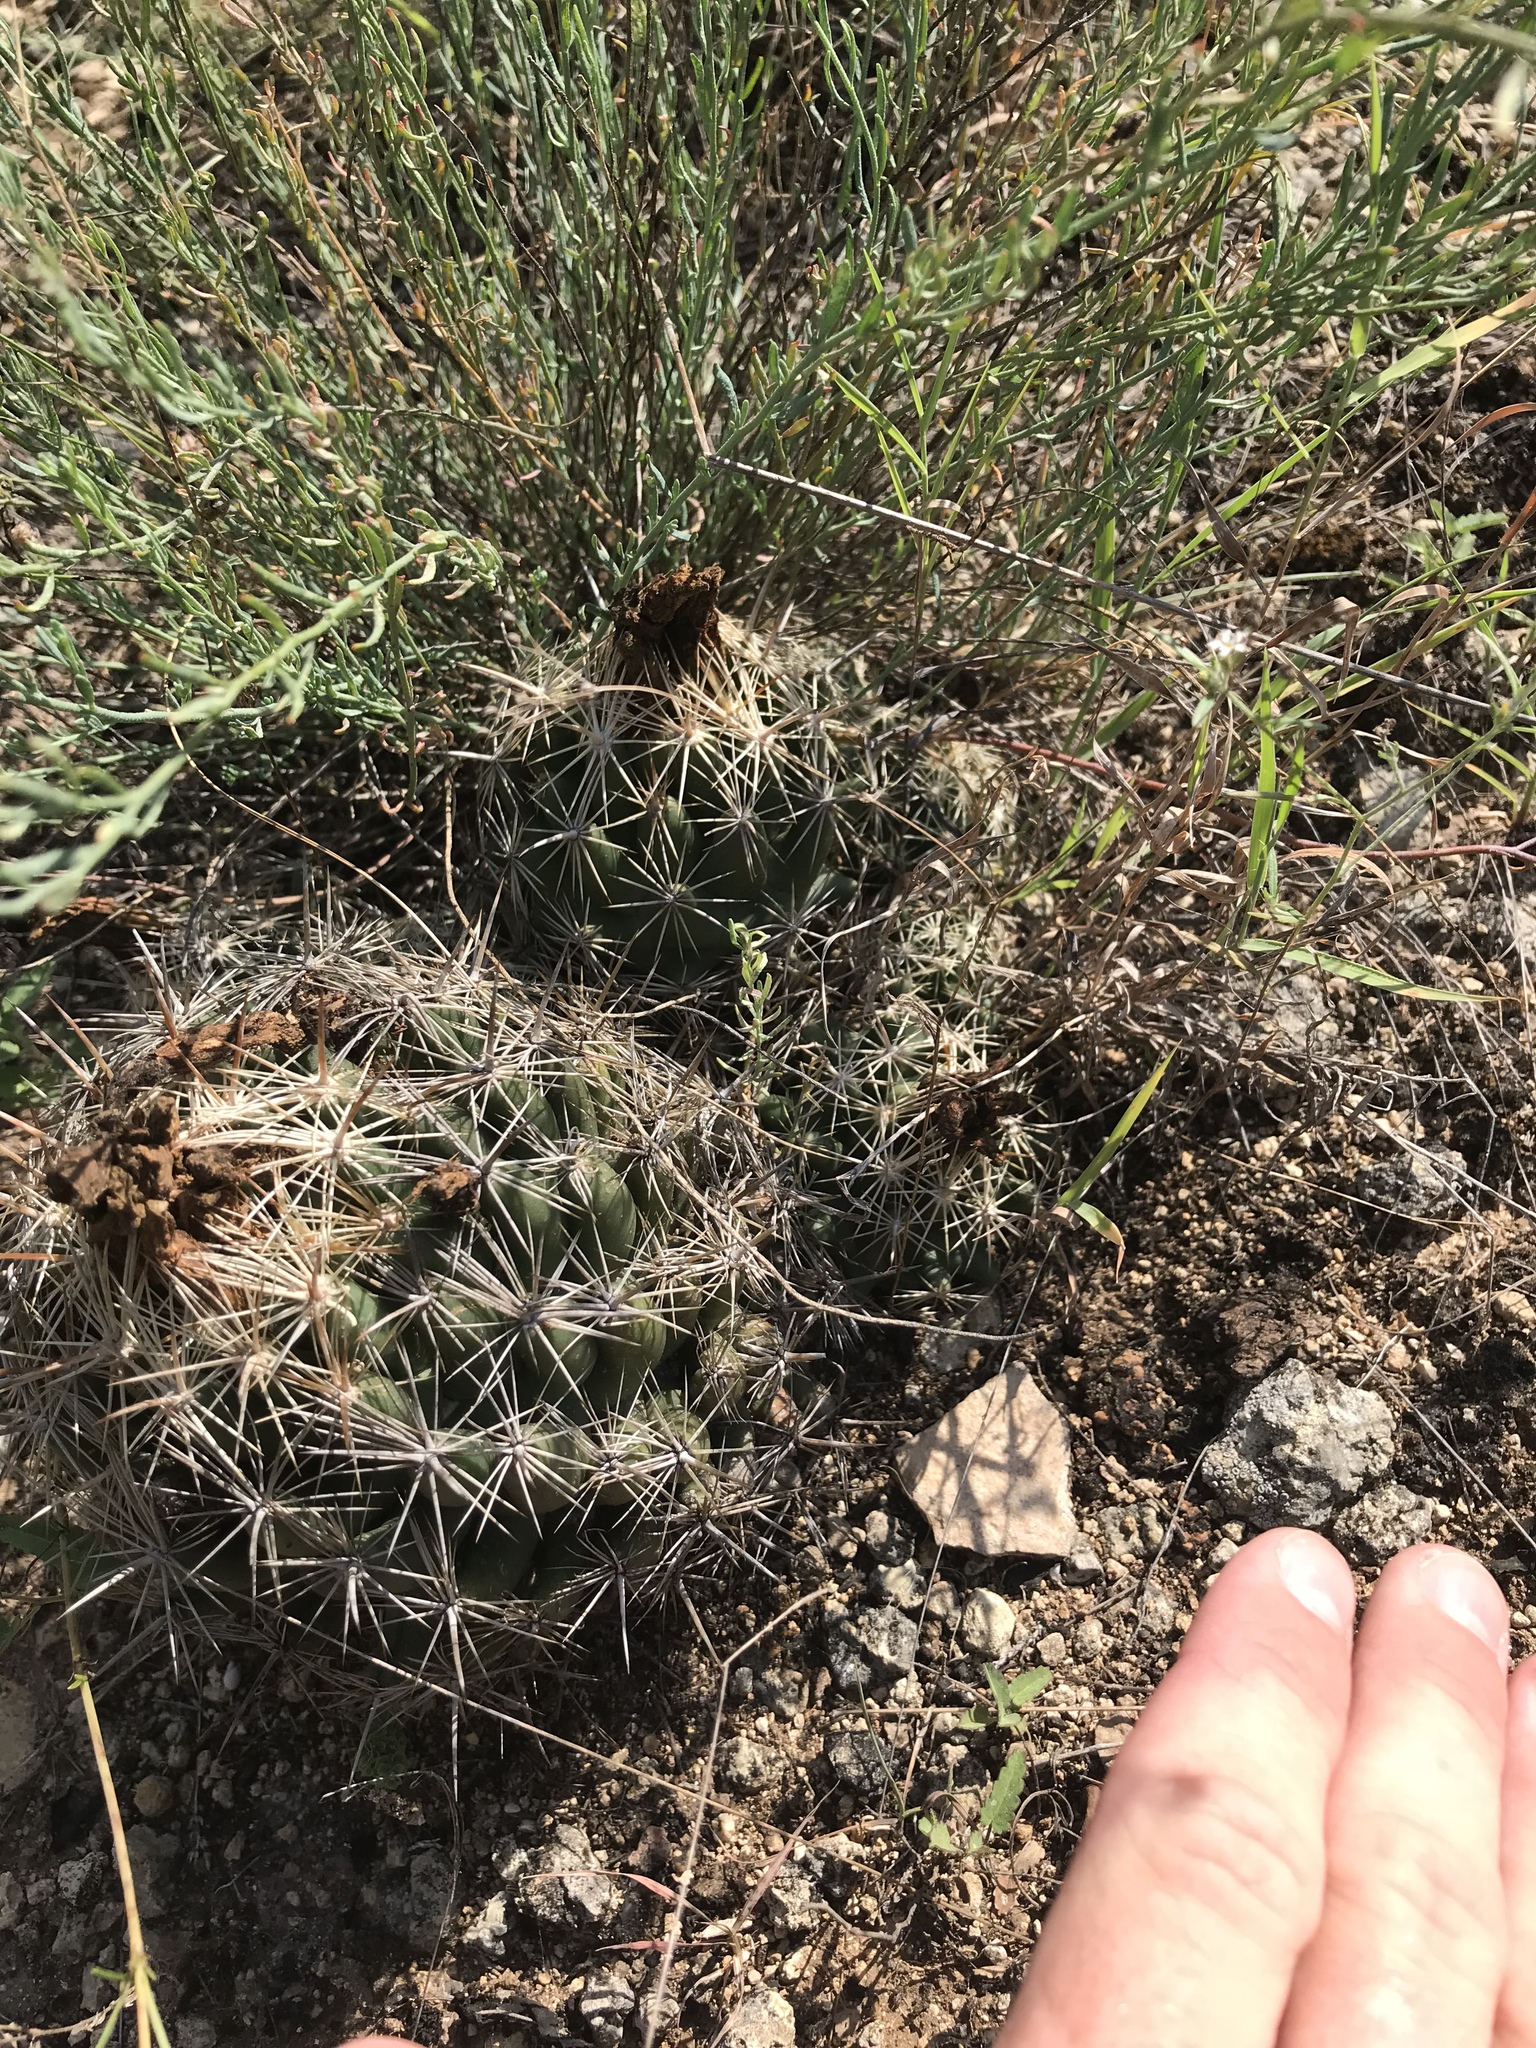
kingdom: Plantae
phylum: Tracheophyta
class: Magnoliopsida
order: Caryophyllales
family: Cactaceae
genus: Coryphantha
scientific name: Coryphantha sulcata
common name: Finger cactus
